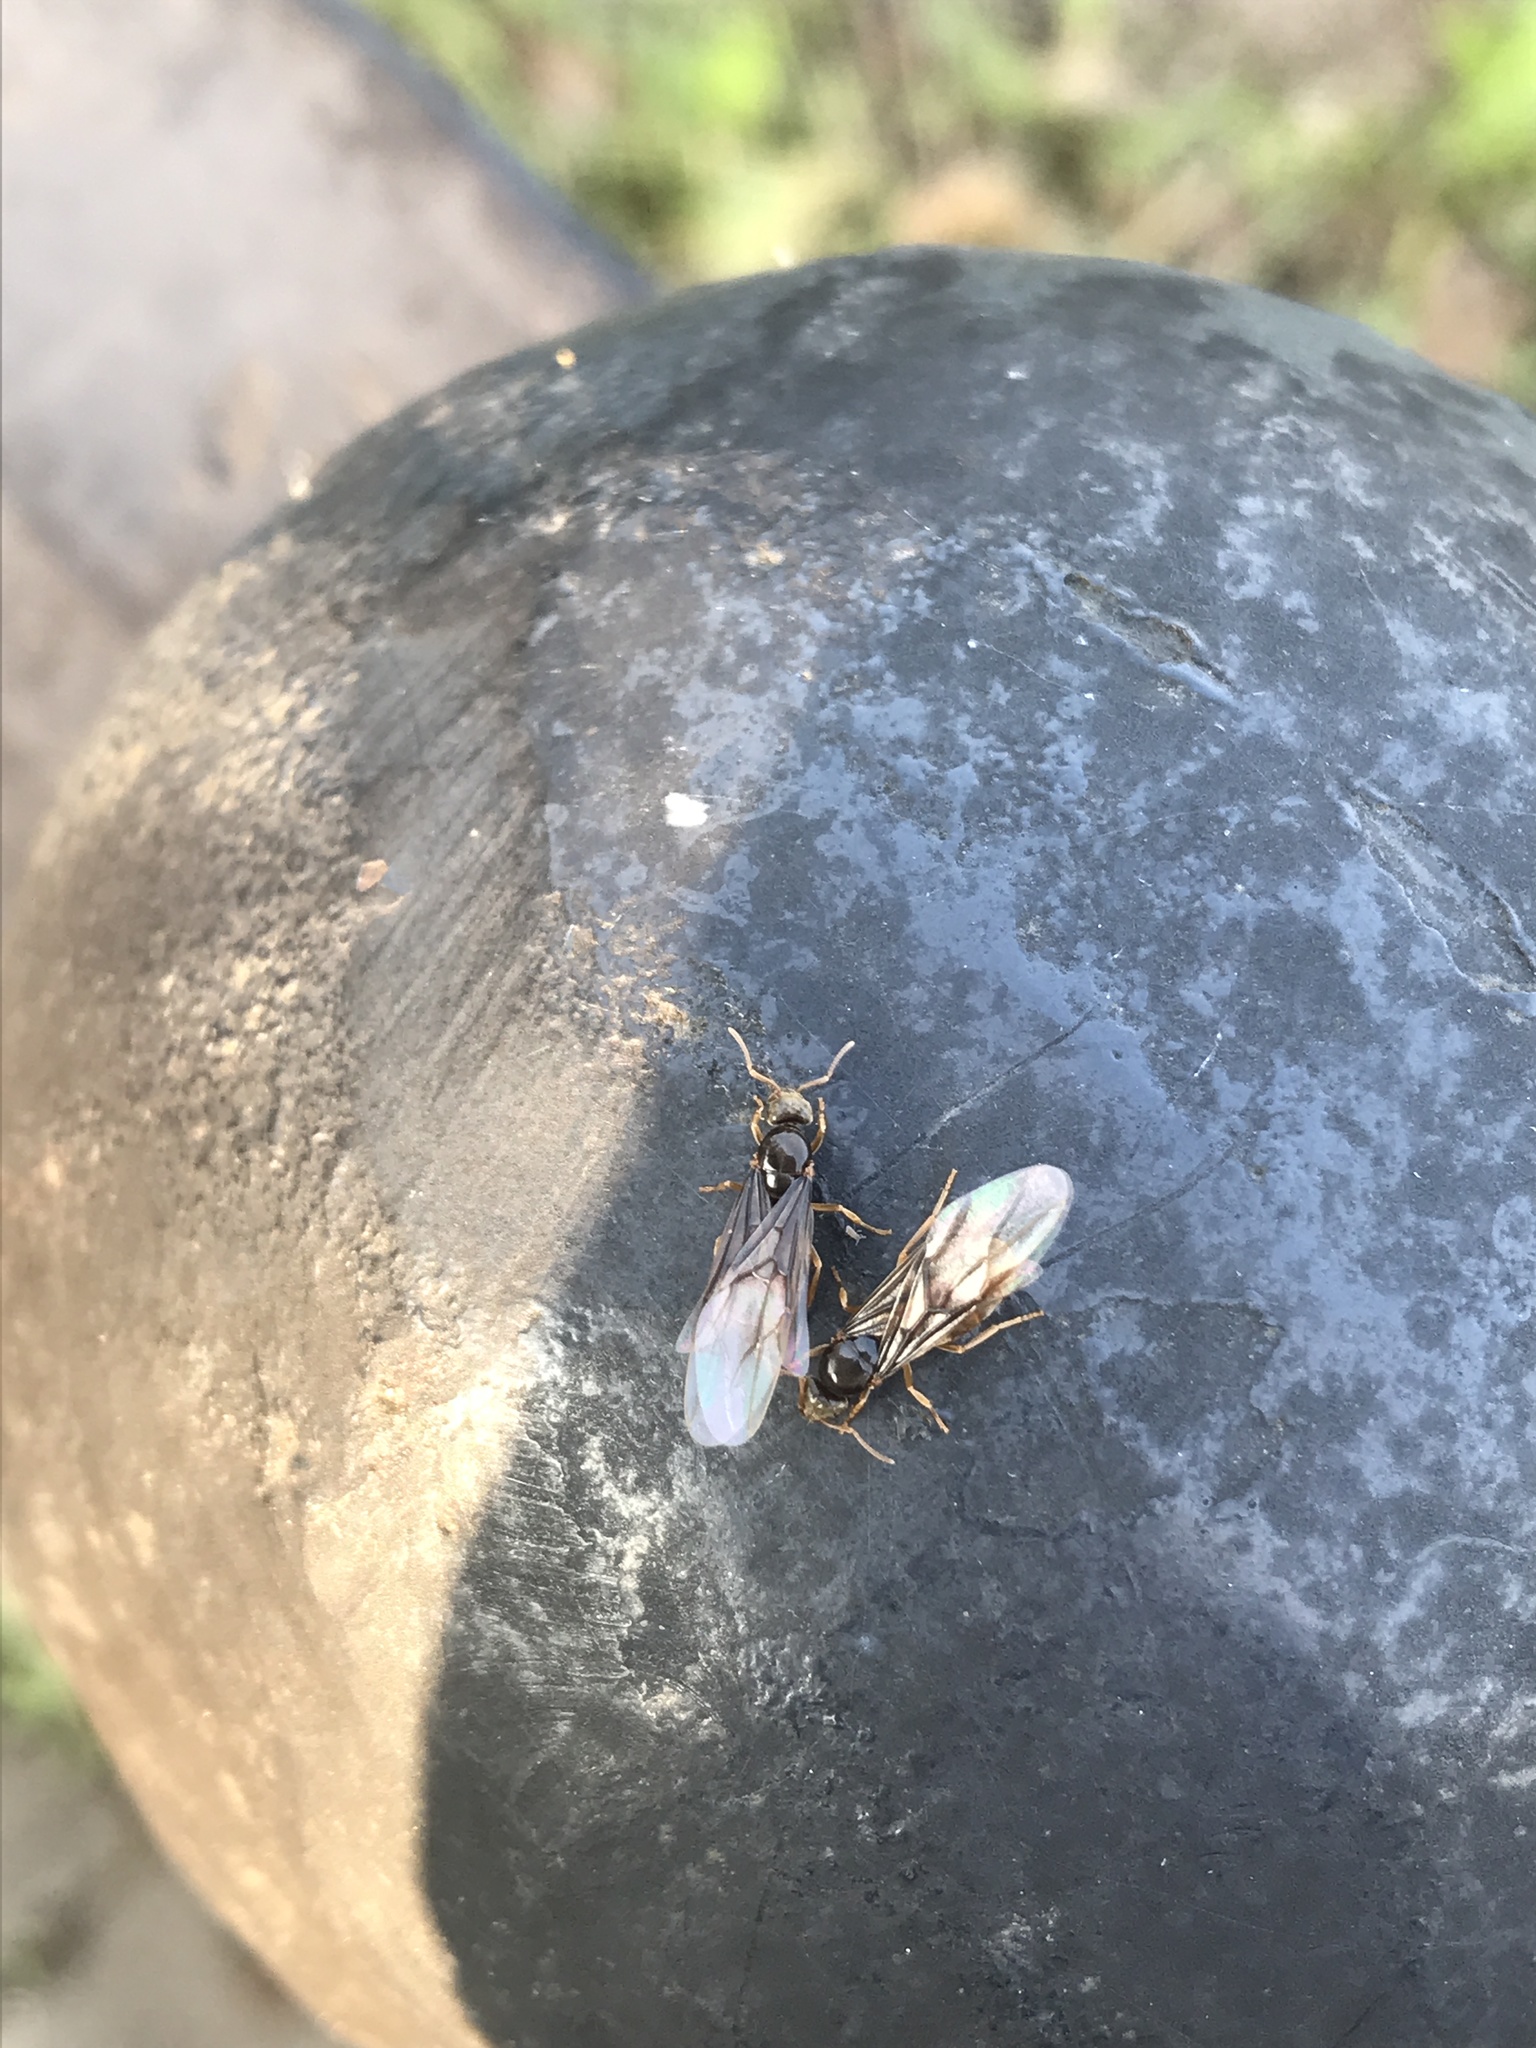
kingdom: Animalia
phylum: Arthropoda
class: Insecta
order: Hymenoptera
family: Formicidae
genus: Lasius
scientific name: Lasius flavus
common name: Blond field ant
